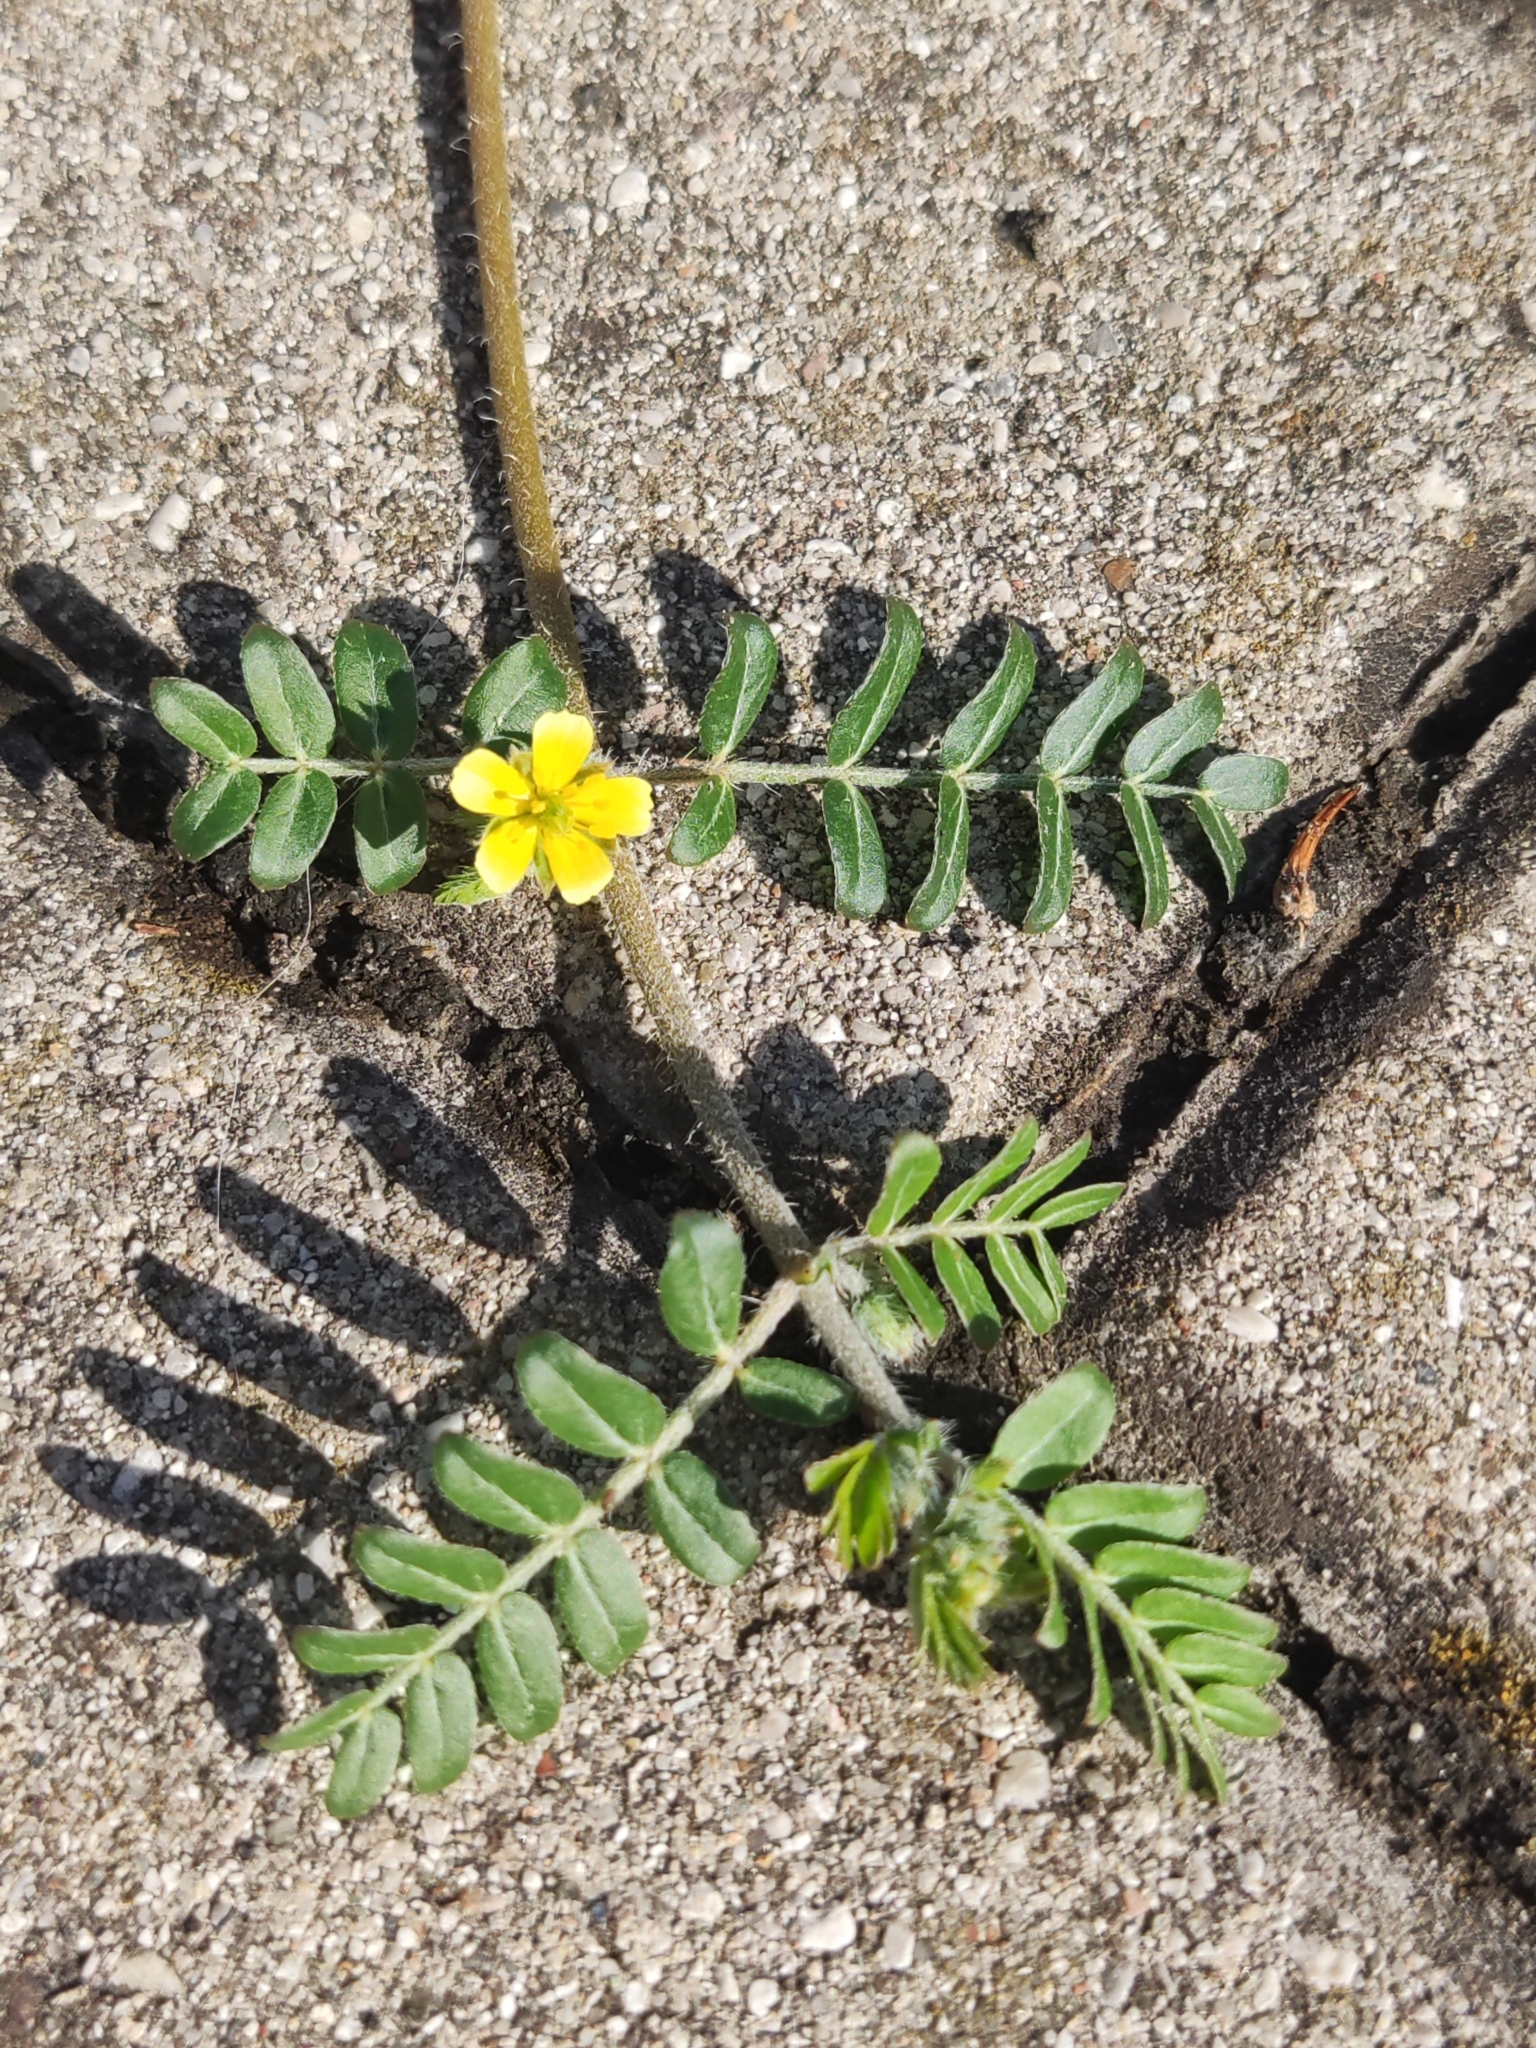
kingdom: Plantae
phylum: Tracheophyta
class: Magnoliopsida
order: Zygophyllales
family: Zygophyllaceae
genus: Tribulus
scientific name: Tribulus terrestris
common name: Puncturevine
